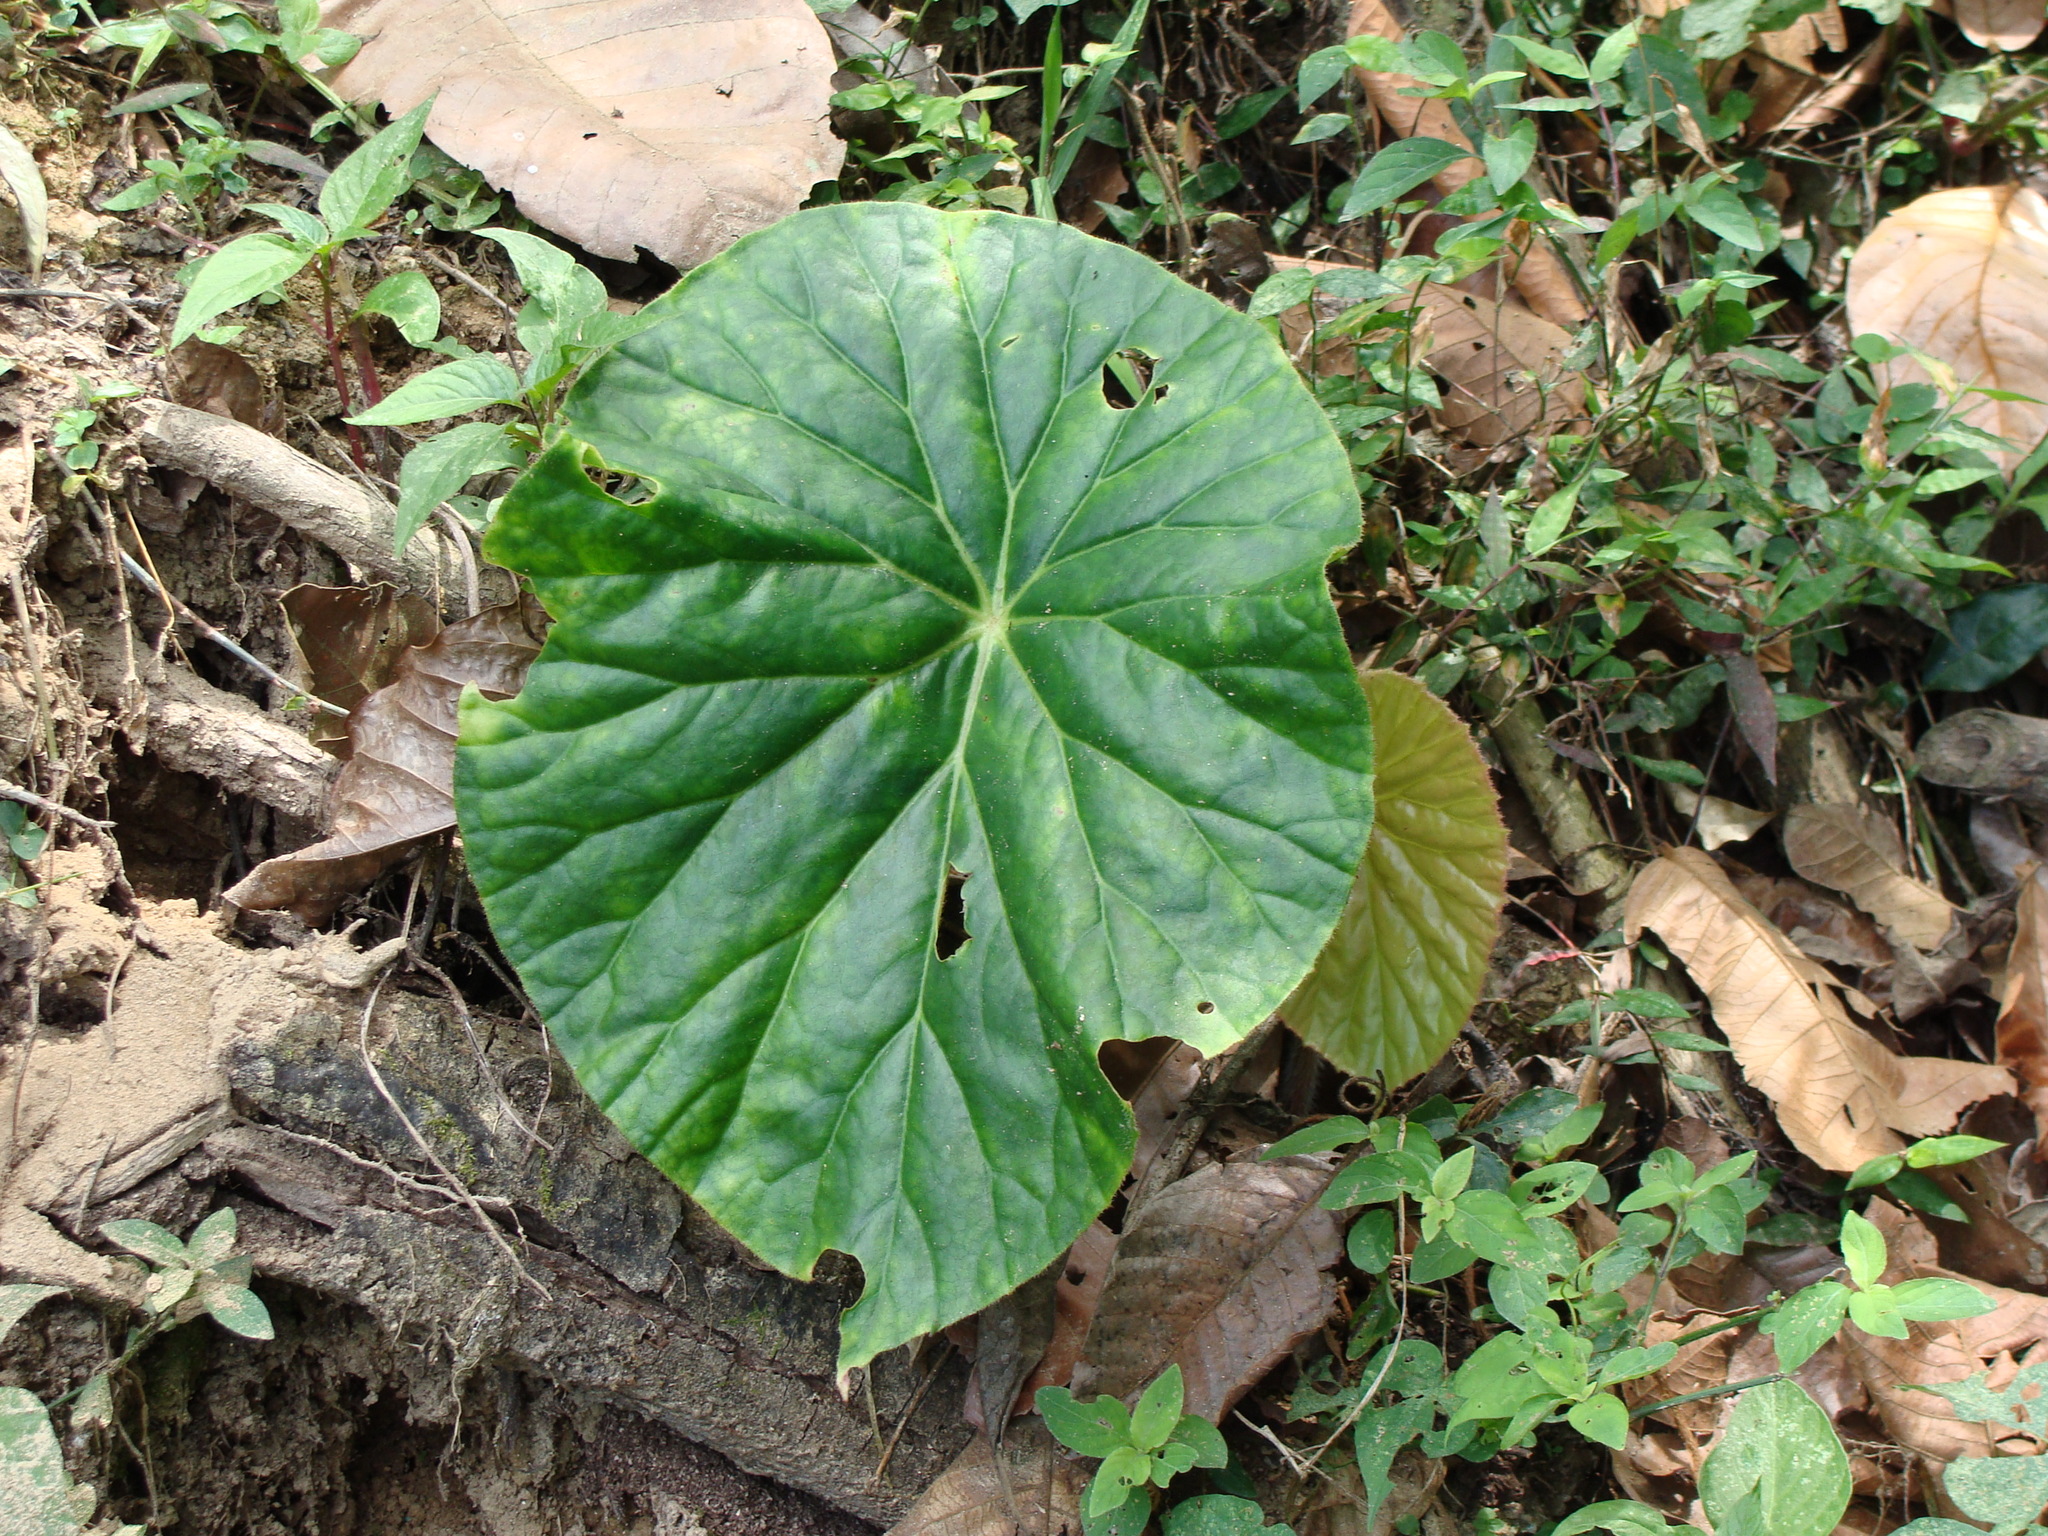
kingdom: Plantae
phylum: Tracheophyta
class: Magnoliopsida
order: Cucurbitales
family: Begoniaceae
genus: Begonia
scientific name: Begonia nelumbiifolia
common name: Lilypad begonia
